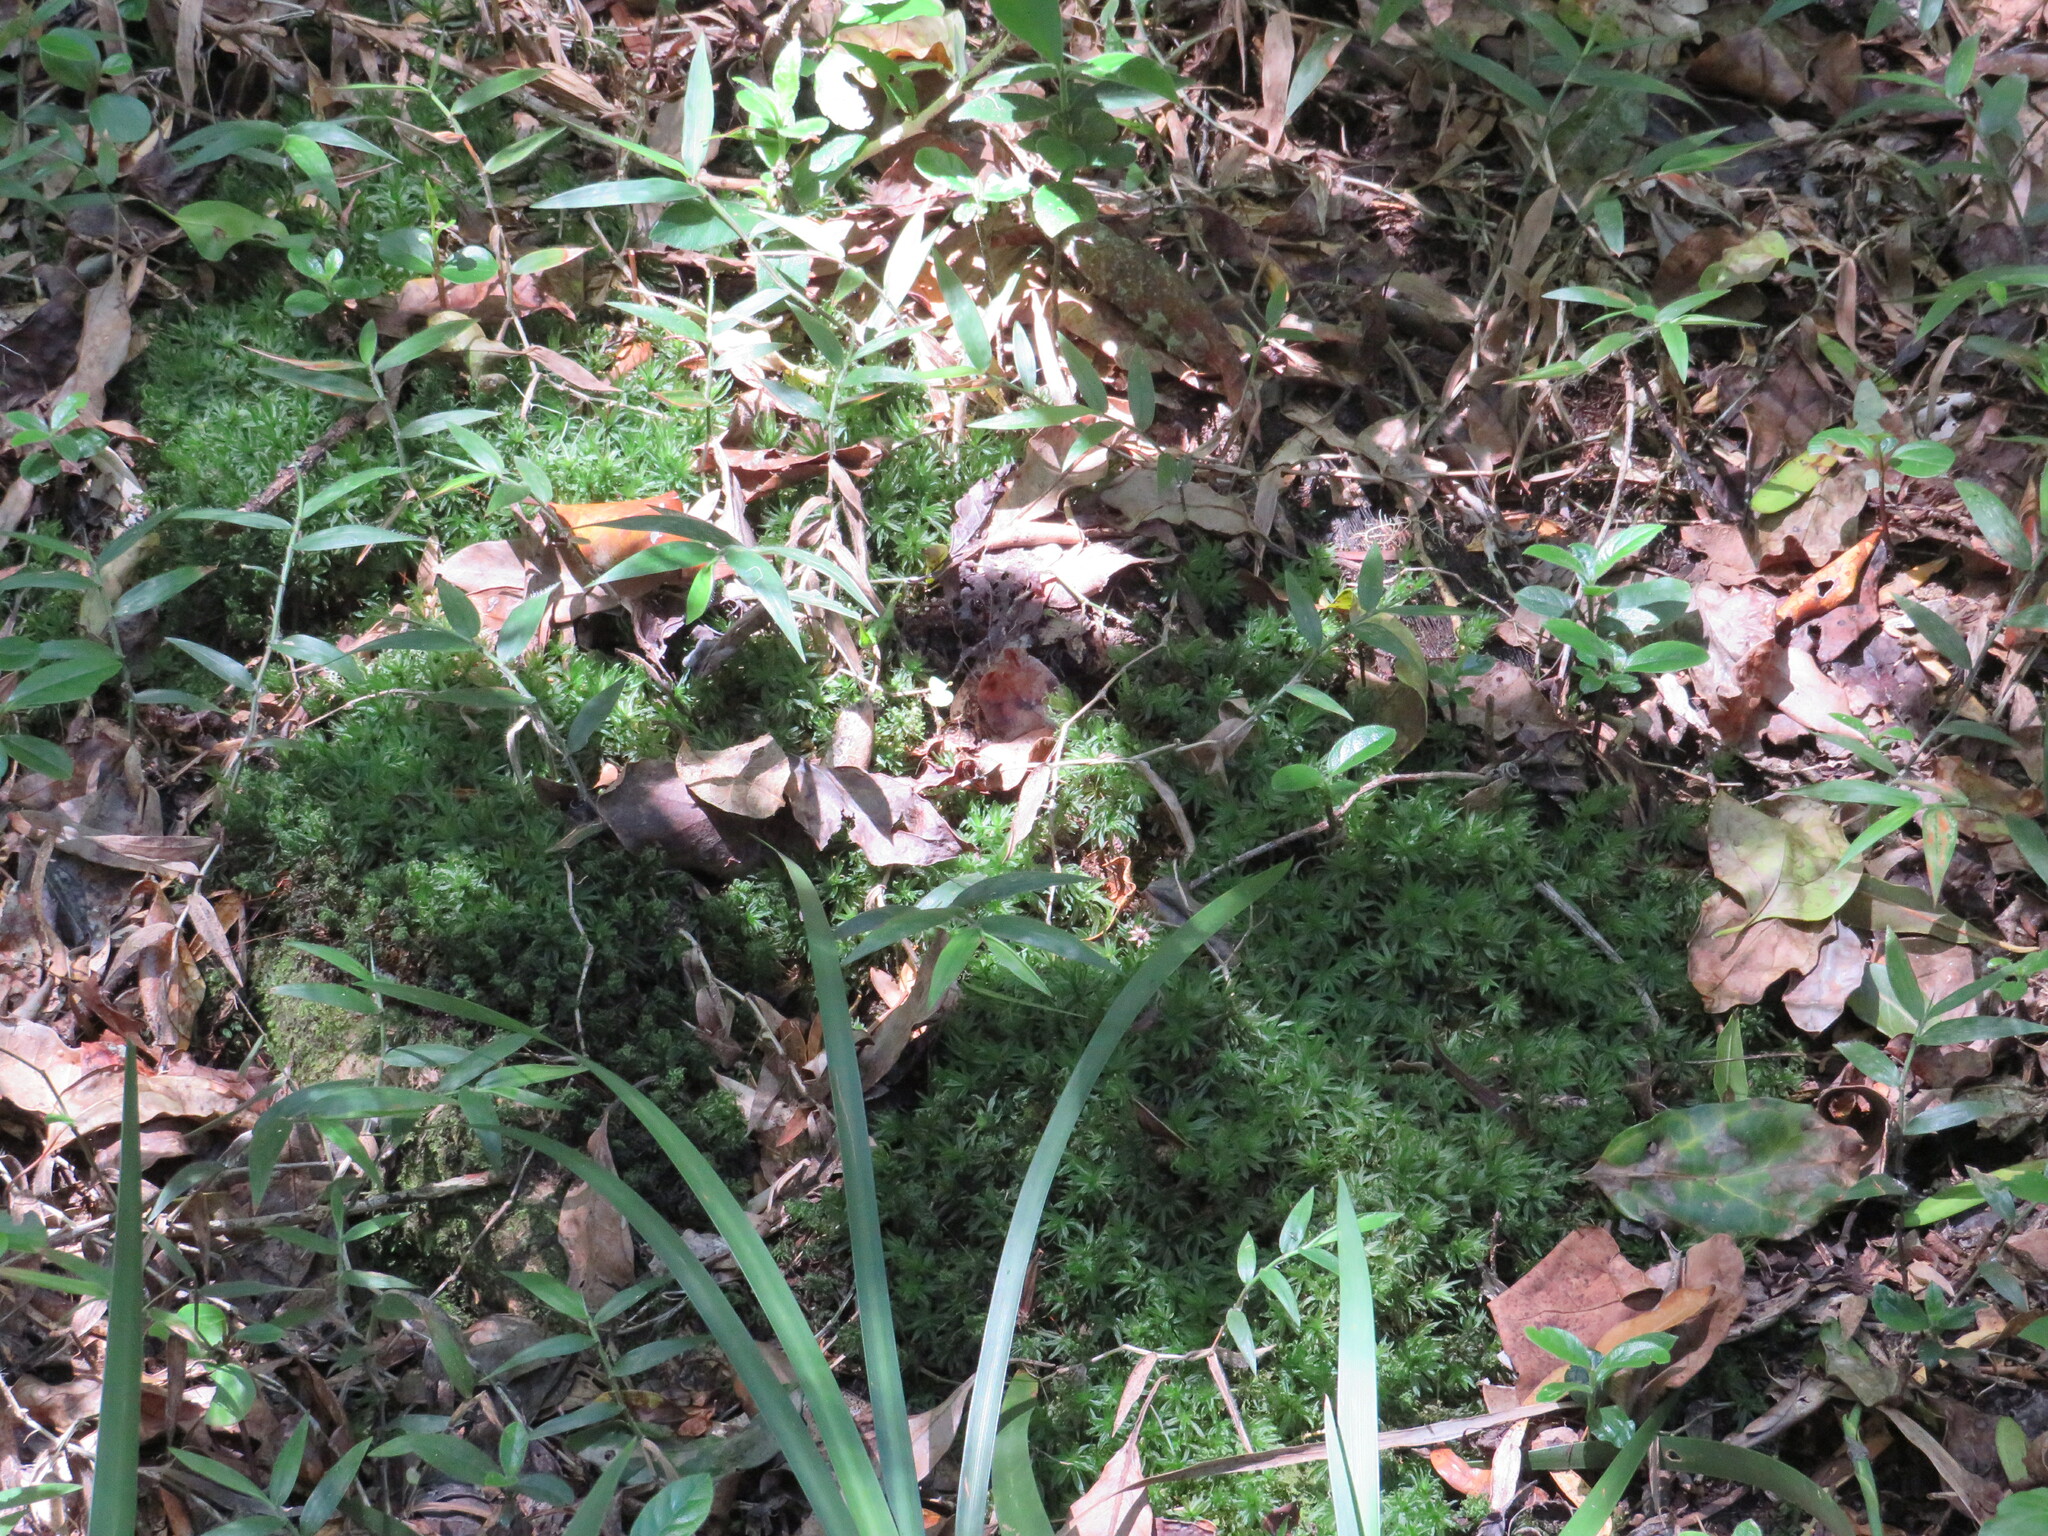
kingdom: Plantae
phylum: Bryophyta
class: Polytrichopsida
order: Polytrichales
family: Polytrichaceae
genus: Atrichum
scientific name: Atrichum androgynum
